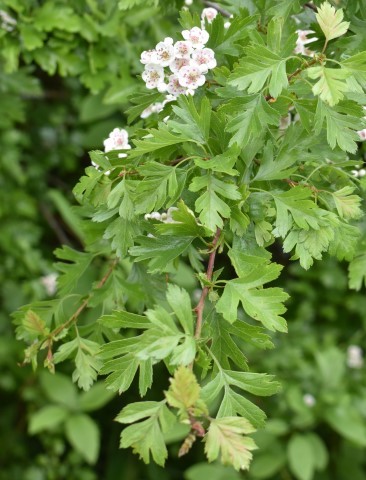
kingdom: Plantae
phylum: Tracheophyta
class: Magnoliopsida
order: Rosales
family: Rosaceae
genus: Crataegus
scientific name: Crataegus monogyna
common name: Hawthorn
